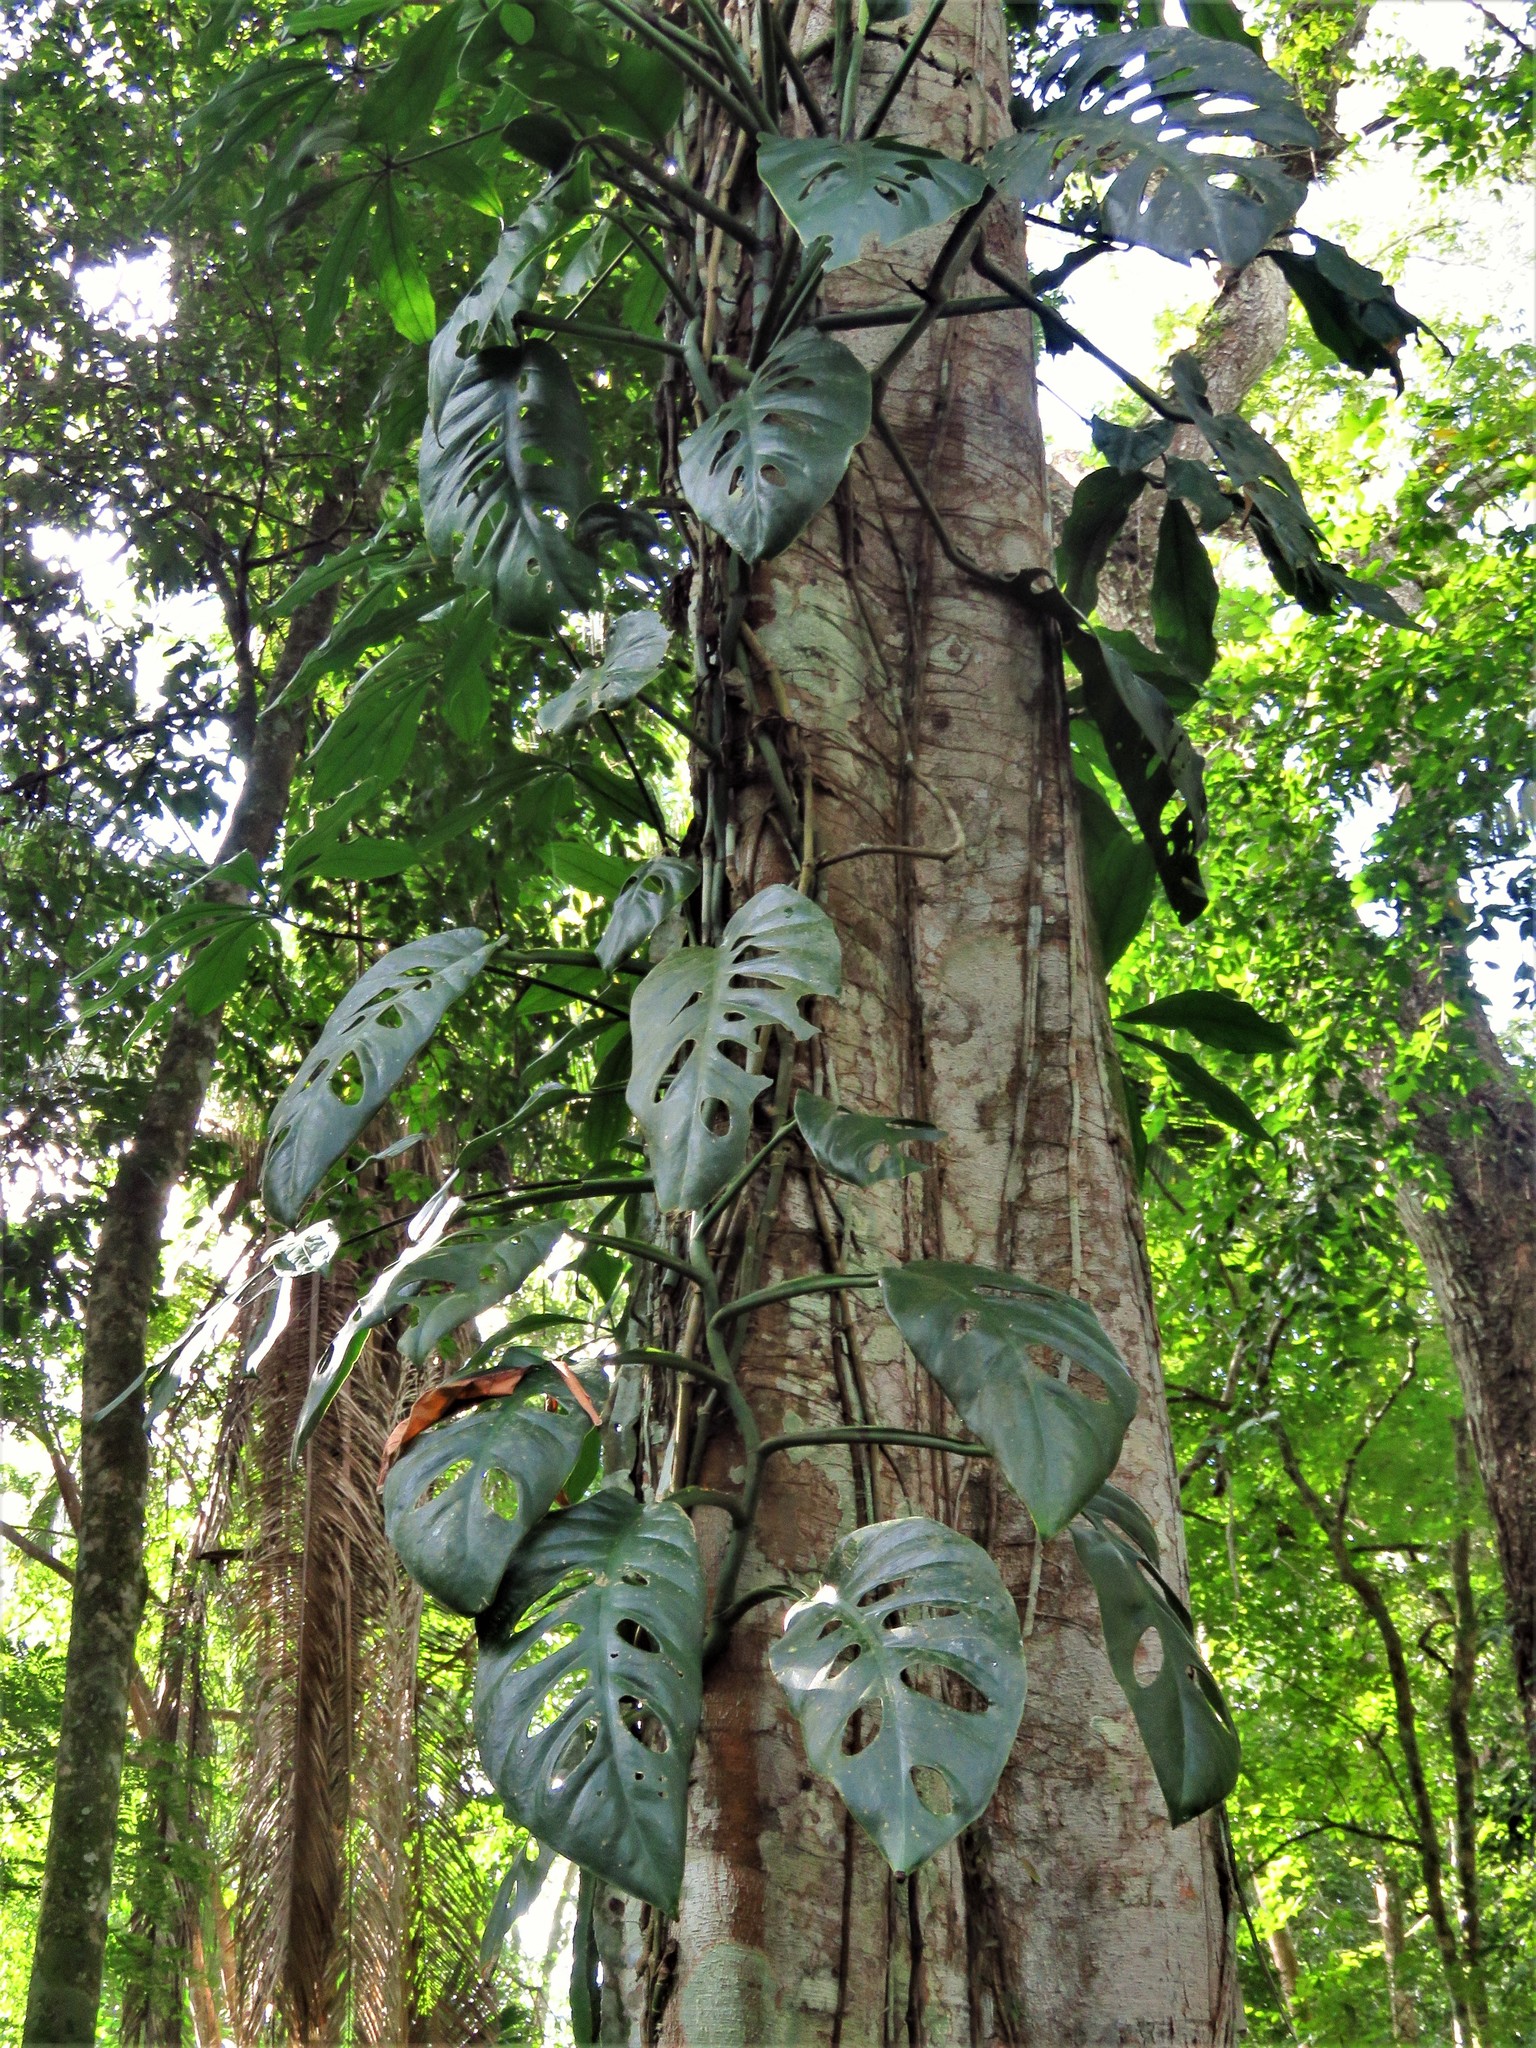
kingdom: Plantae
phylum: Tracheophyta
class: Liliopsida
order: Alismatales
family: Araceae
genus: Monstera
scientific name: Monstera acuminata
